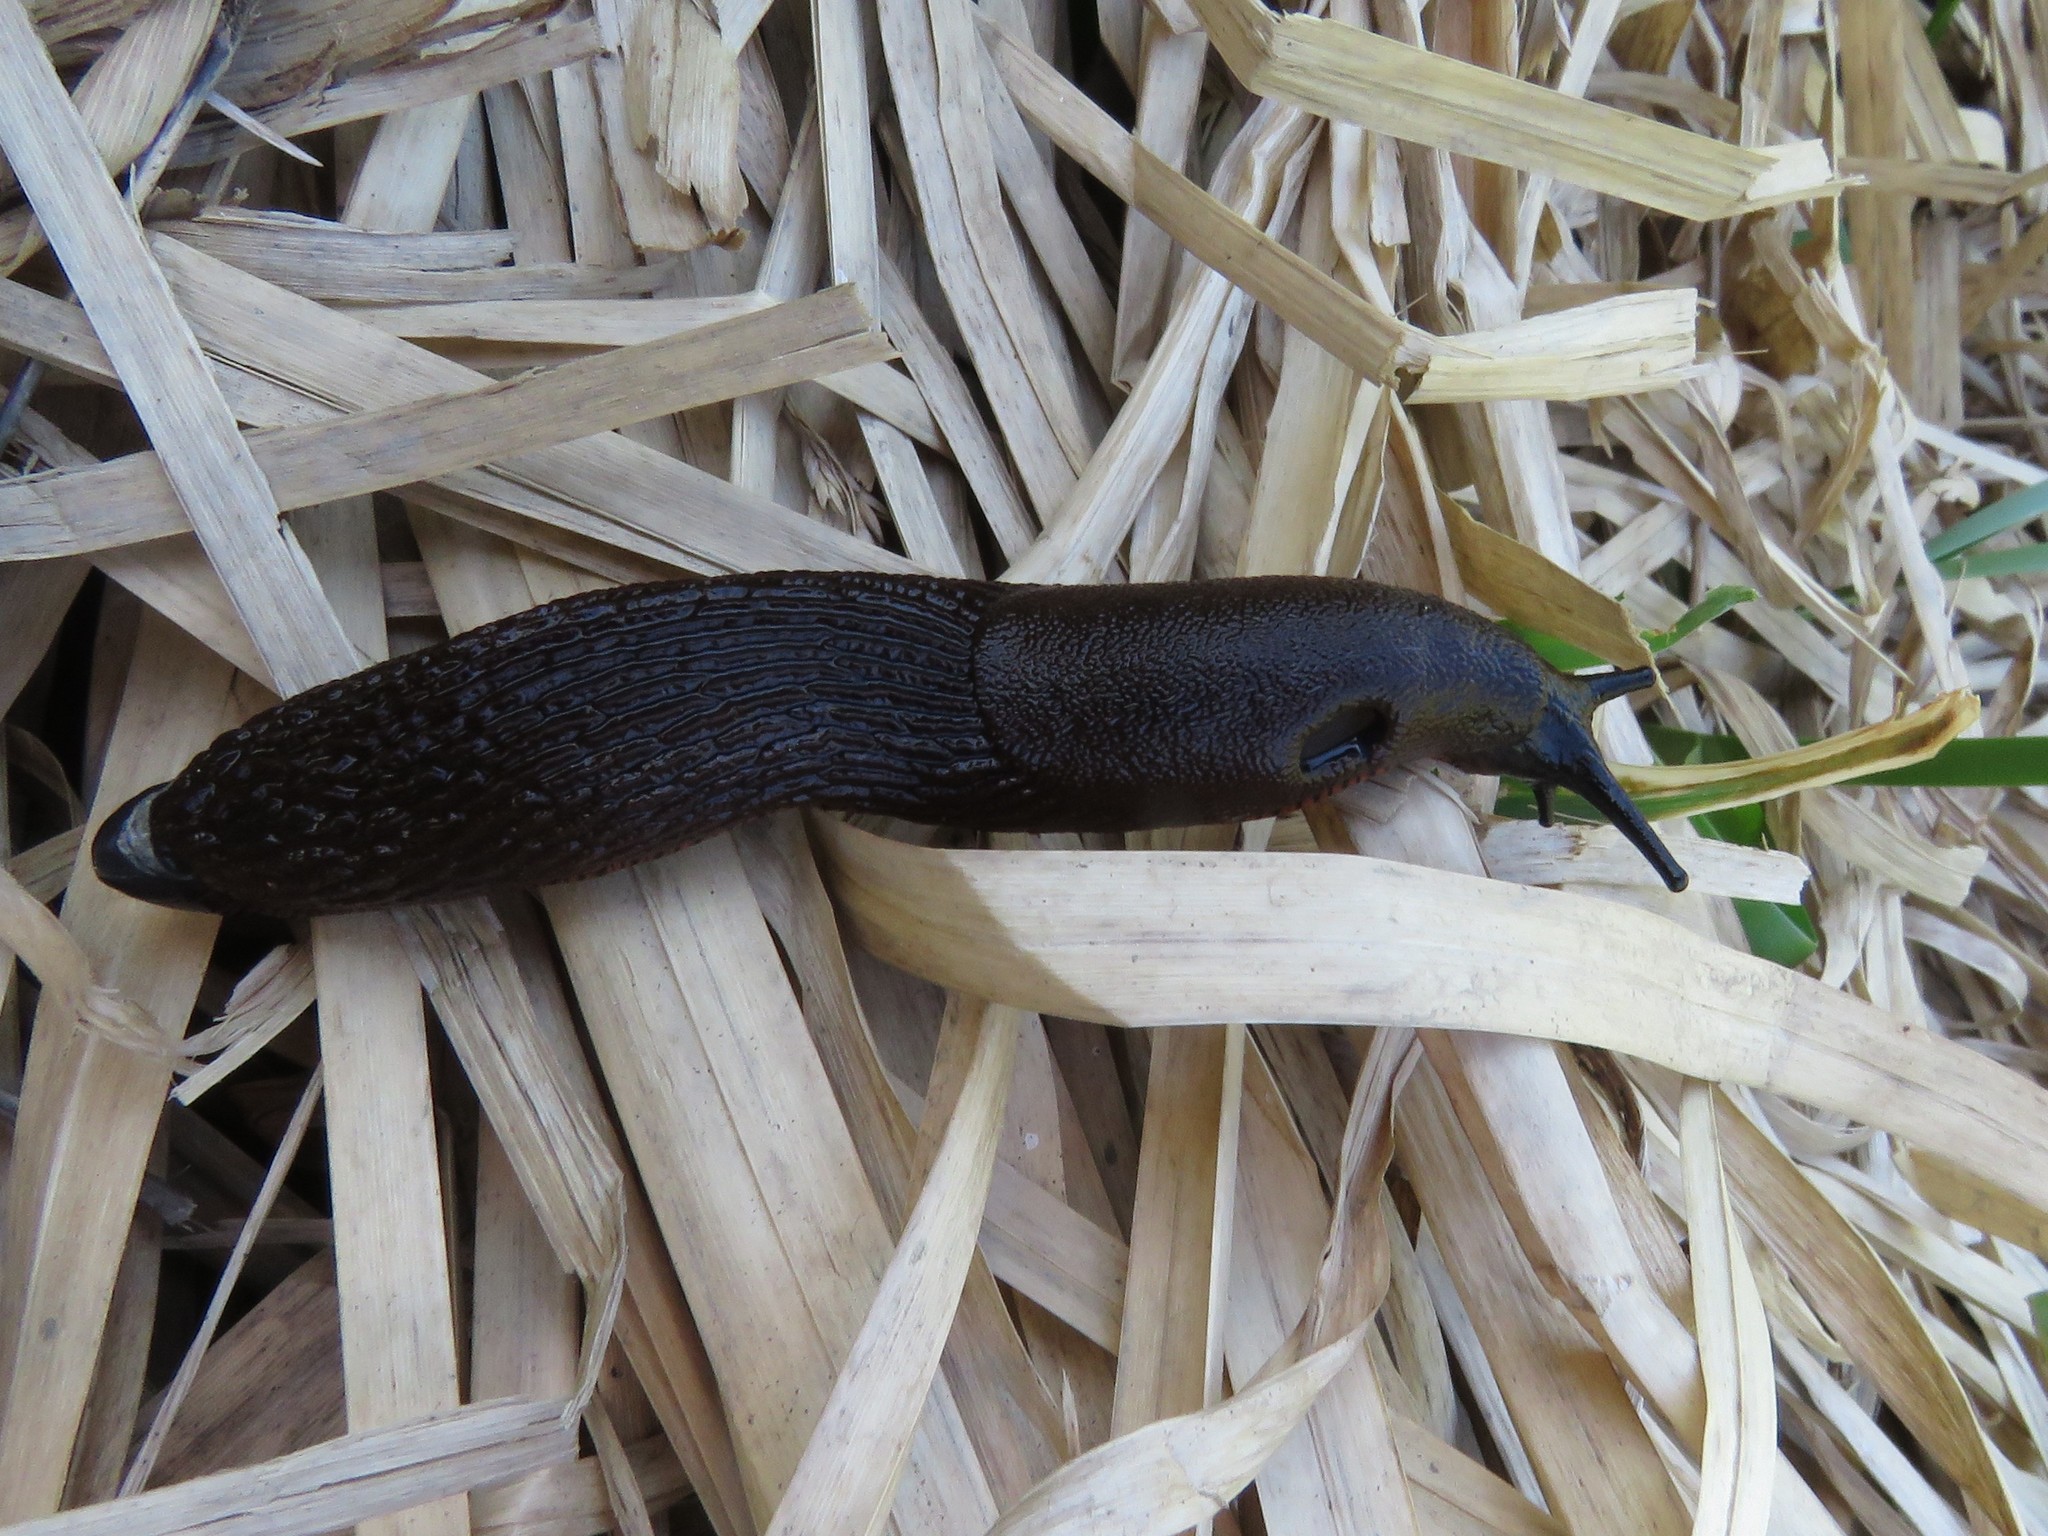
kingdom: Animalia
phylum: Mollusca
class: Gastropoda
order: Stylommatophora
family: Arionidae
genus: Arion
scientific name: Arion ater
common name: Black arion
